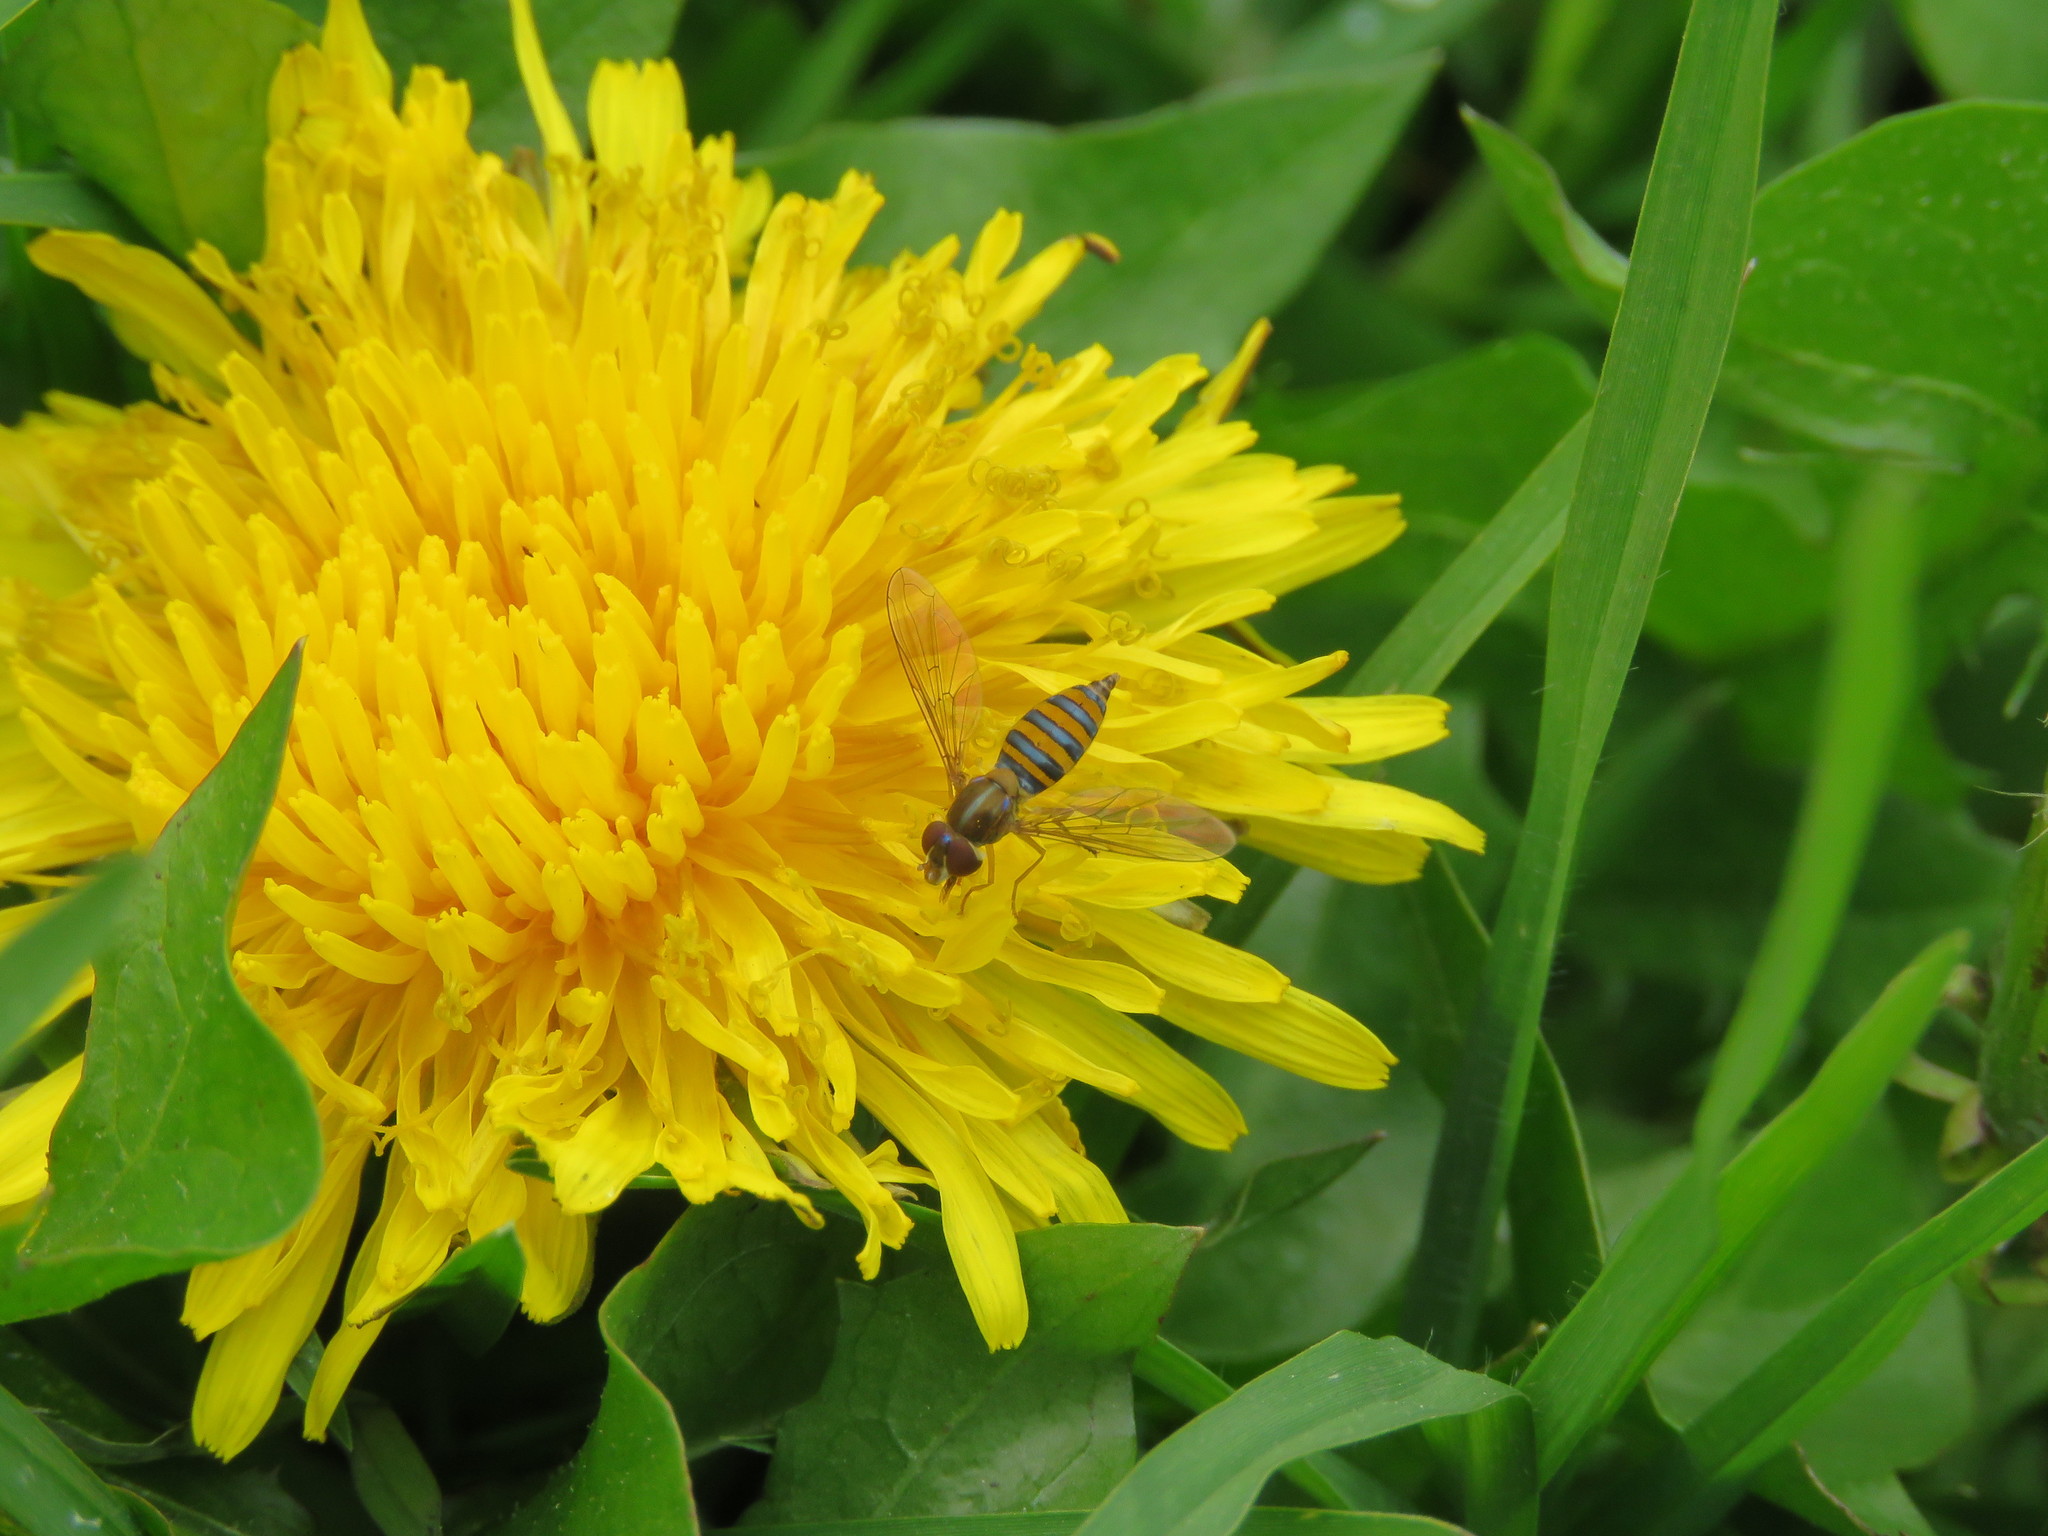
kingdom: Animalia
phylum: Arthropoda
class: Insecta
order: Diptera
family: Syrphidae
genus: Toxomerus
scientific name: Toxomerus
